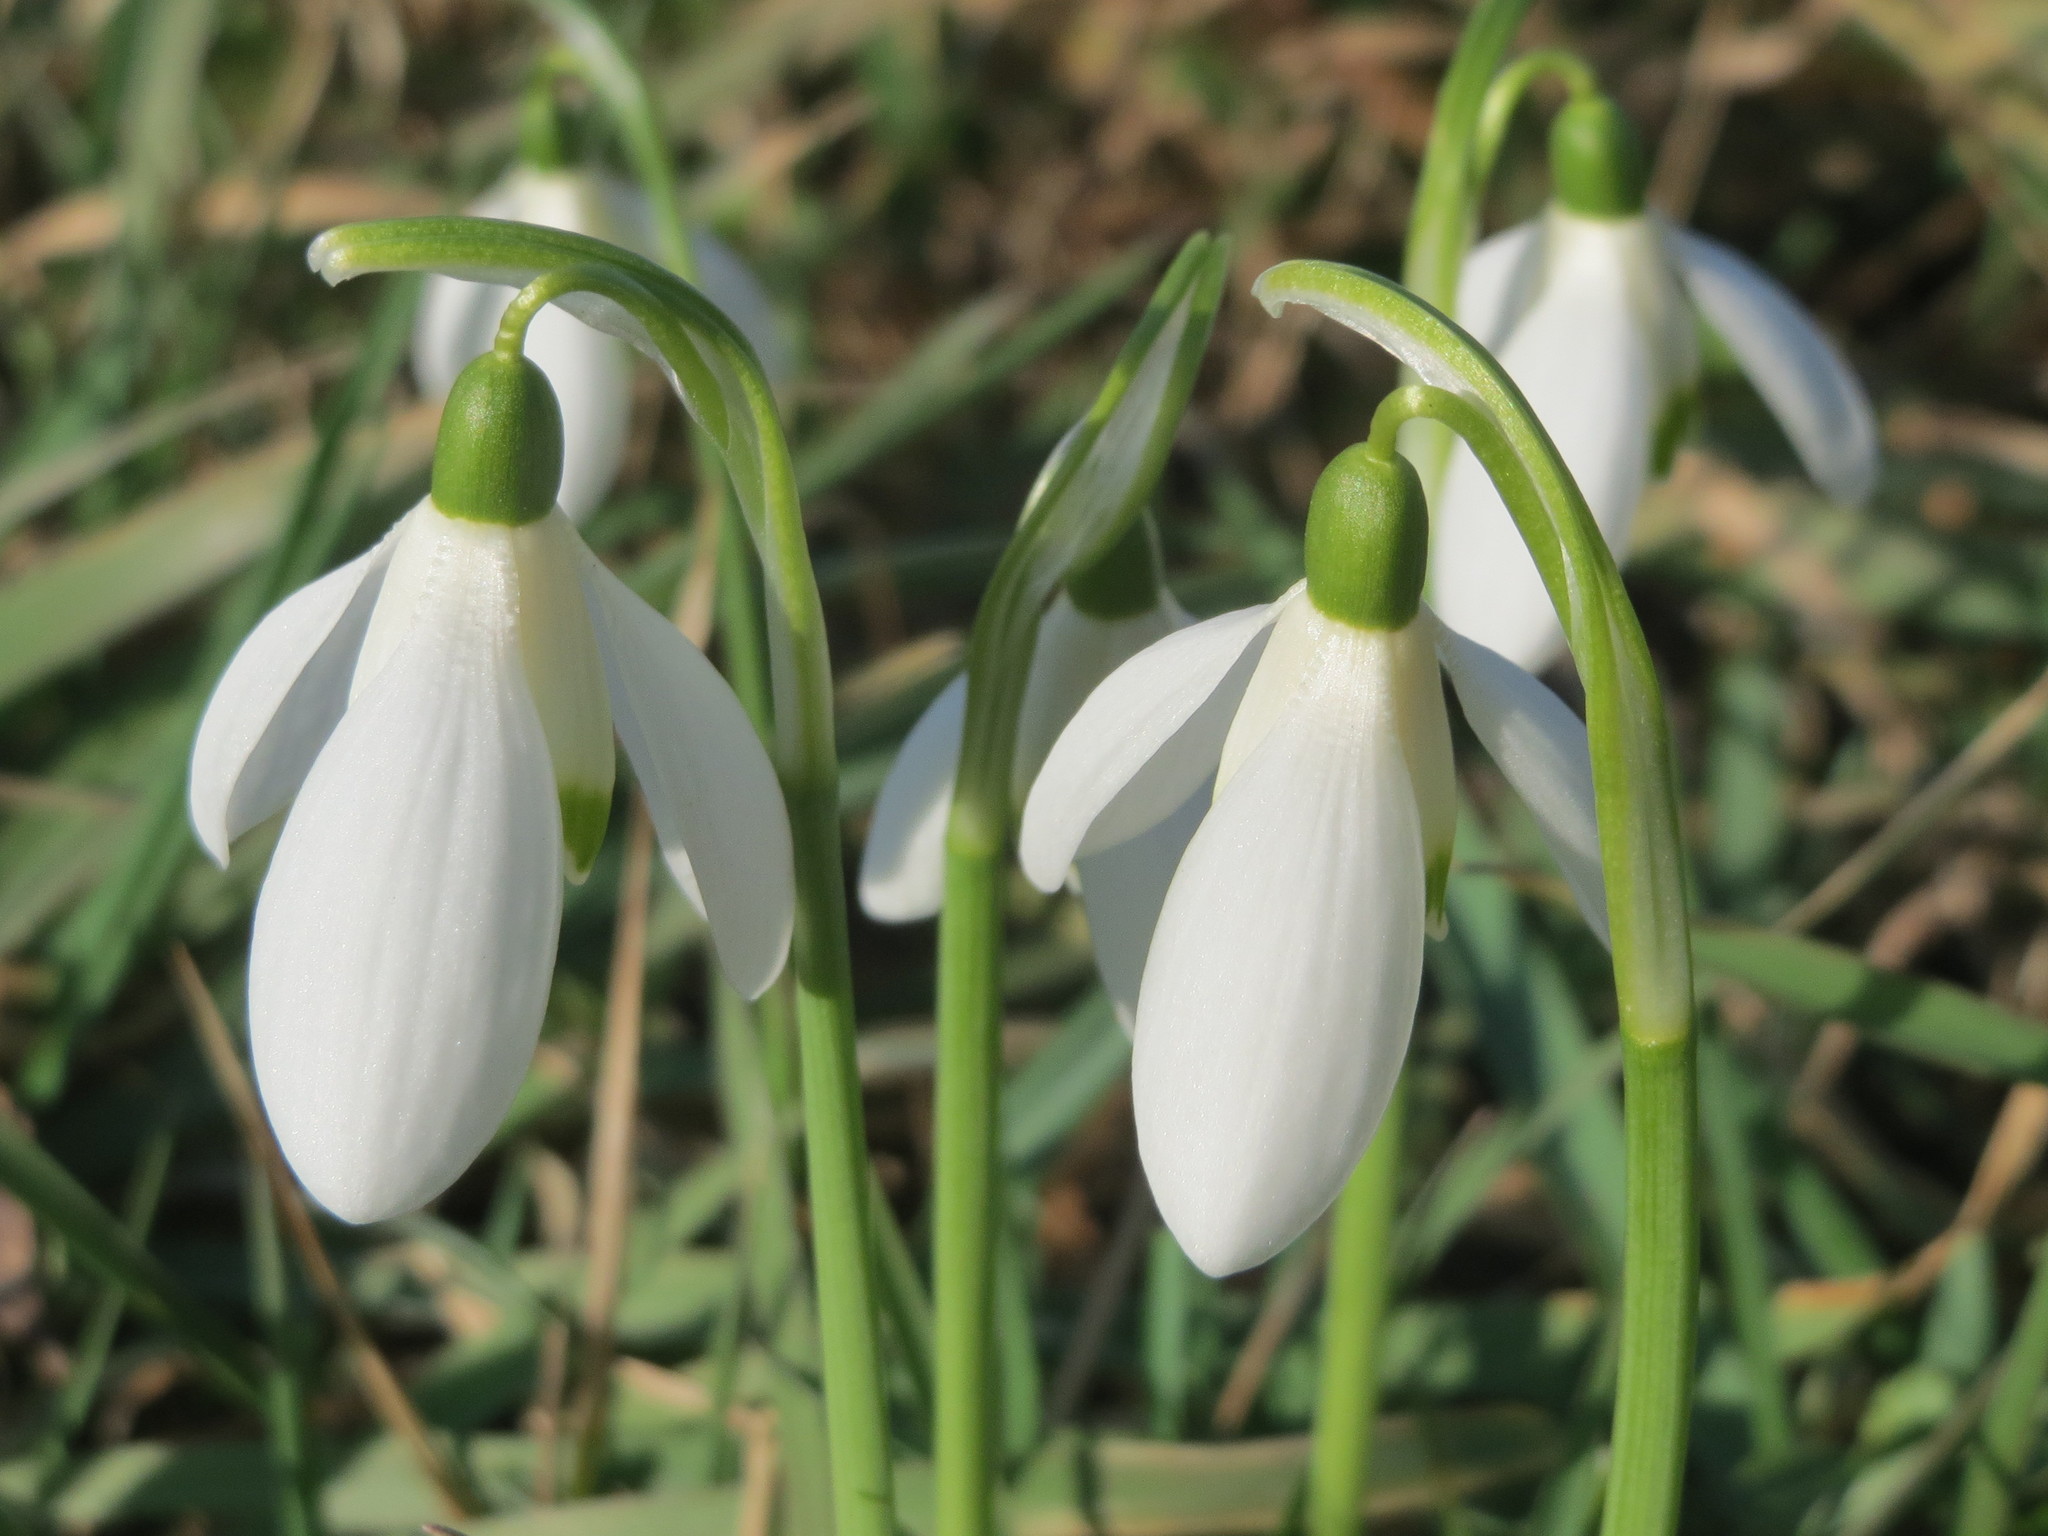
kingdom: Plantae
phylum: Tracheophyta
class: Liliopsida
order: Asparagales
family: Amaryllidaceae
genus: Galanthus
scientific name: Galanthus nivalis
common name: Snowdrop
